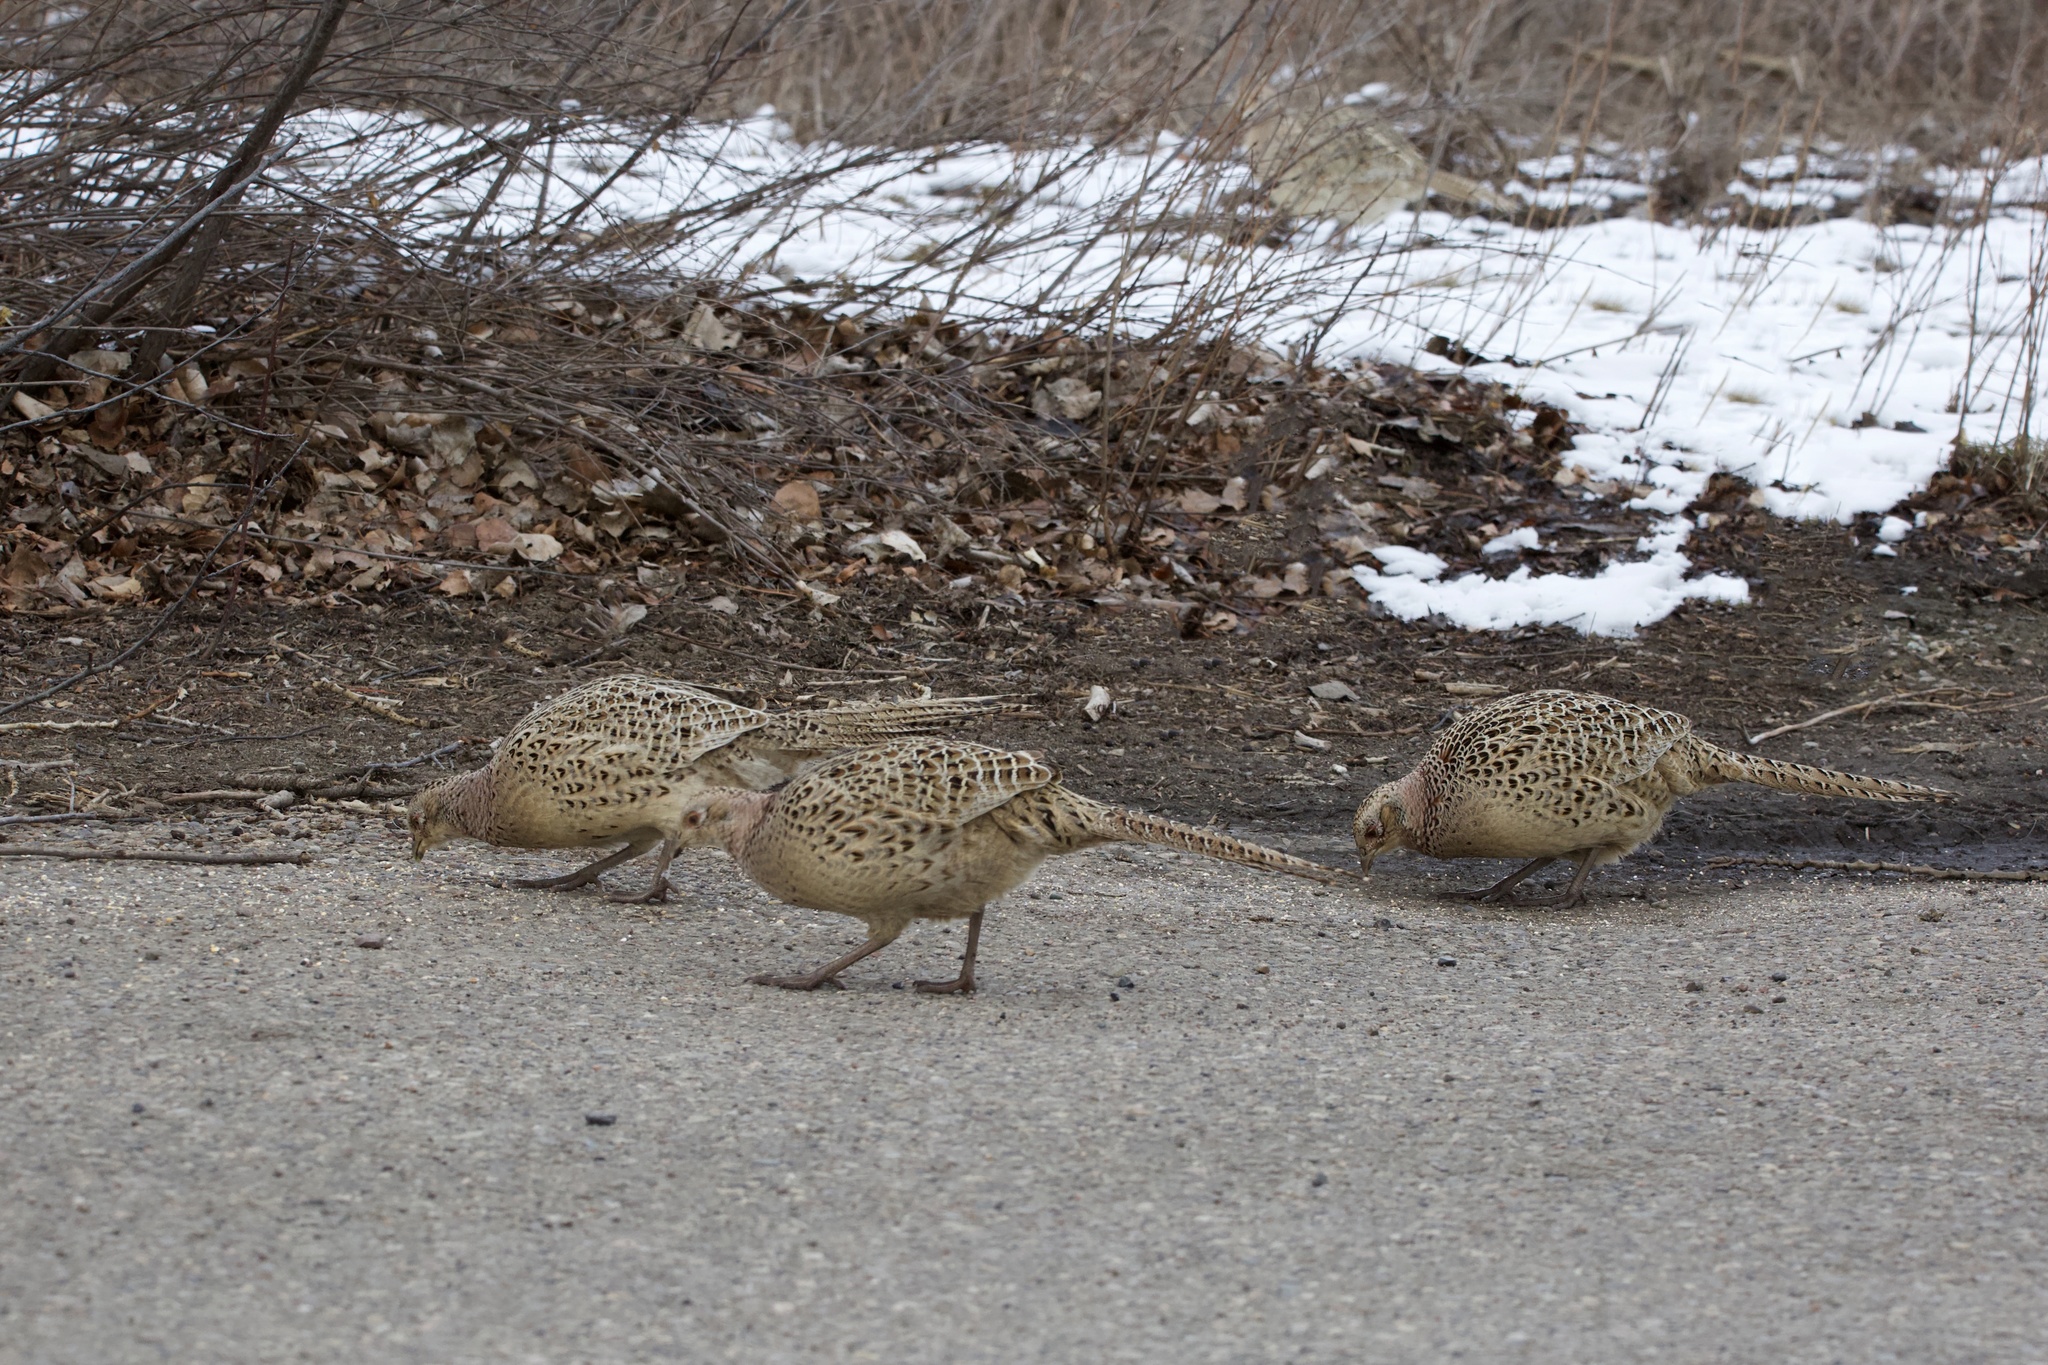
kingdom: Animalia
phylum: Chordata
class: Aves
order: Galliformes
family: Phasianidae
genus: Phasianus
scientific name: Phasianus colchicus
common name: Common pheasant
